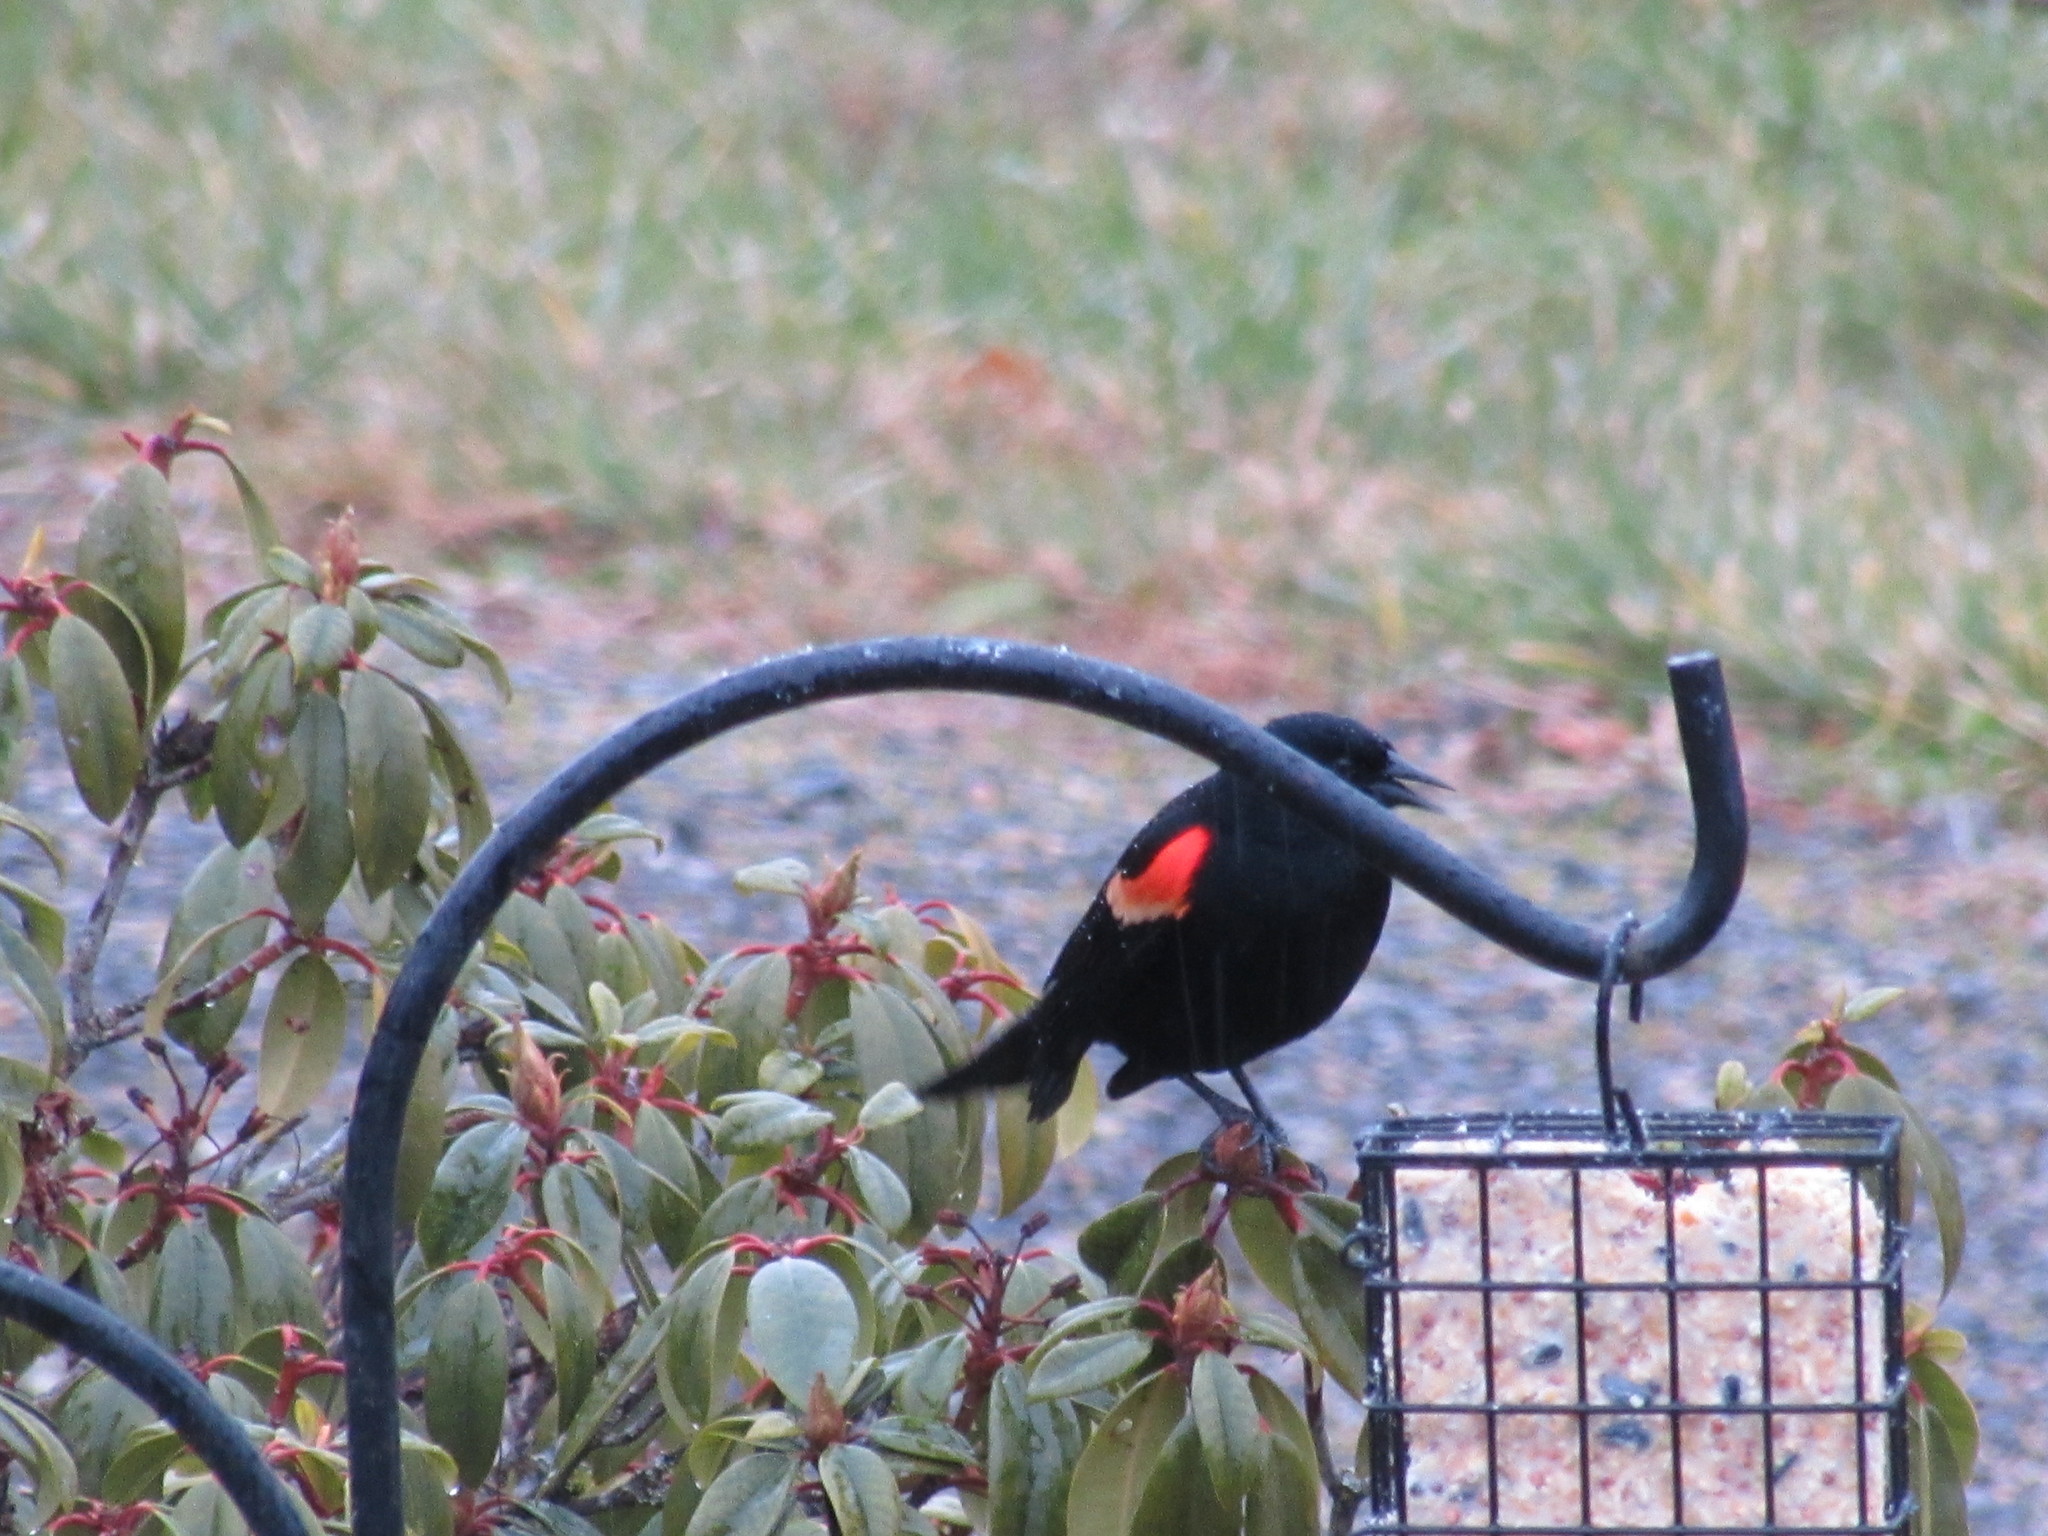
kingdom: Animalia
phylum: Chordata
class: Aves
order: Passeriformes
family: Icteridae
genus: Agelaius
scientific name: Agelaius phoeniceus
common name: Red-winged blackbird
